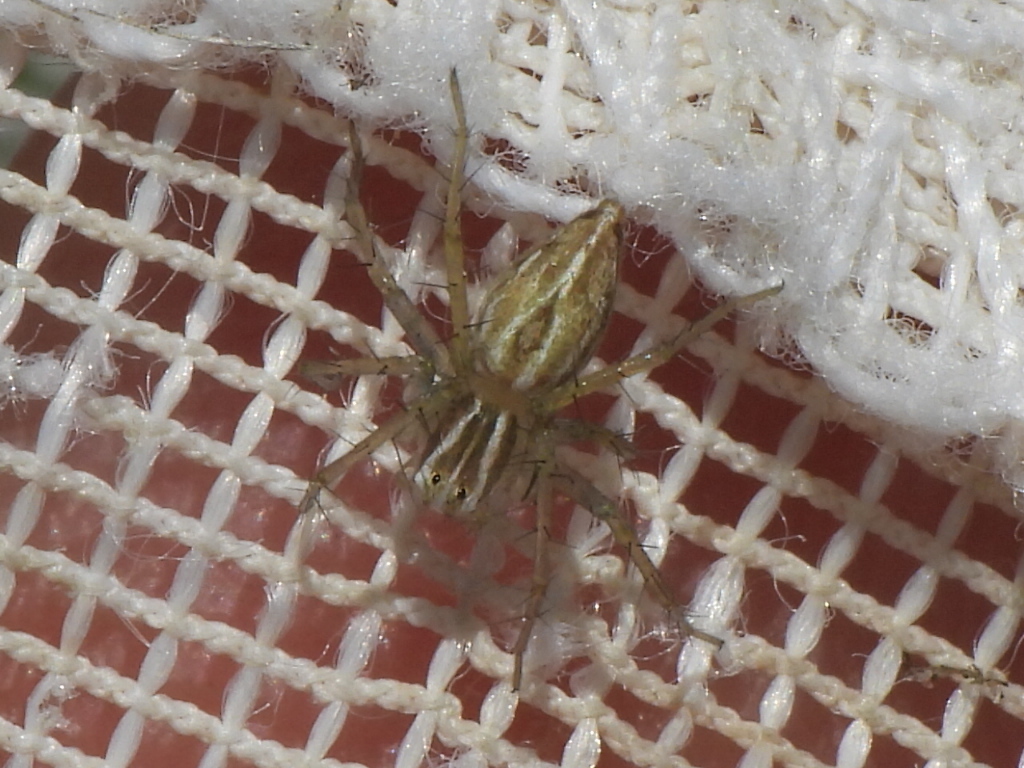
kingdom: Animalia
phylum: Arthropoda
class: Arachnida
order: Araneae
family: Oxyopidae
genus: Oxyopes
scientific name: Oxyopes salticus
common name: Lynx spiders
